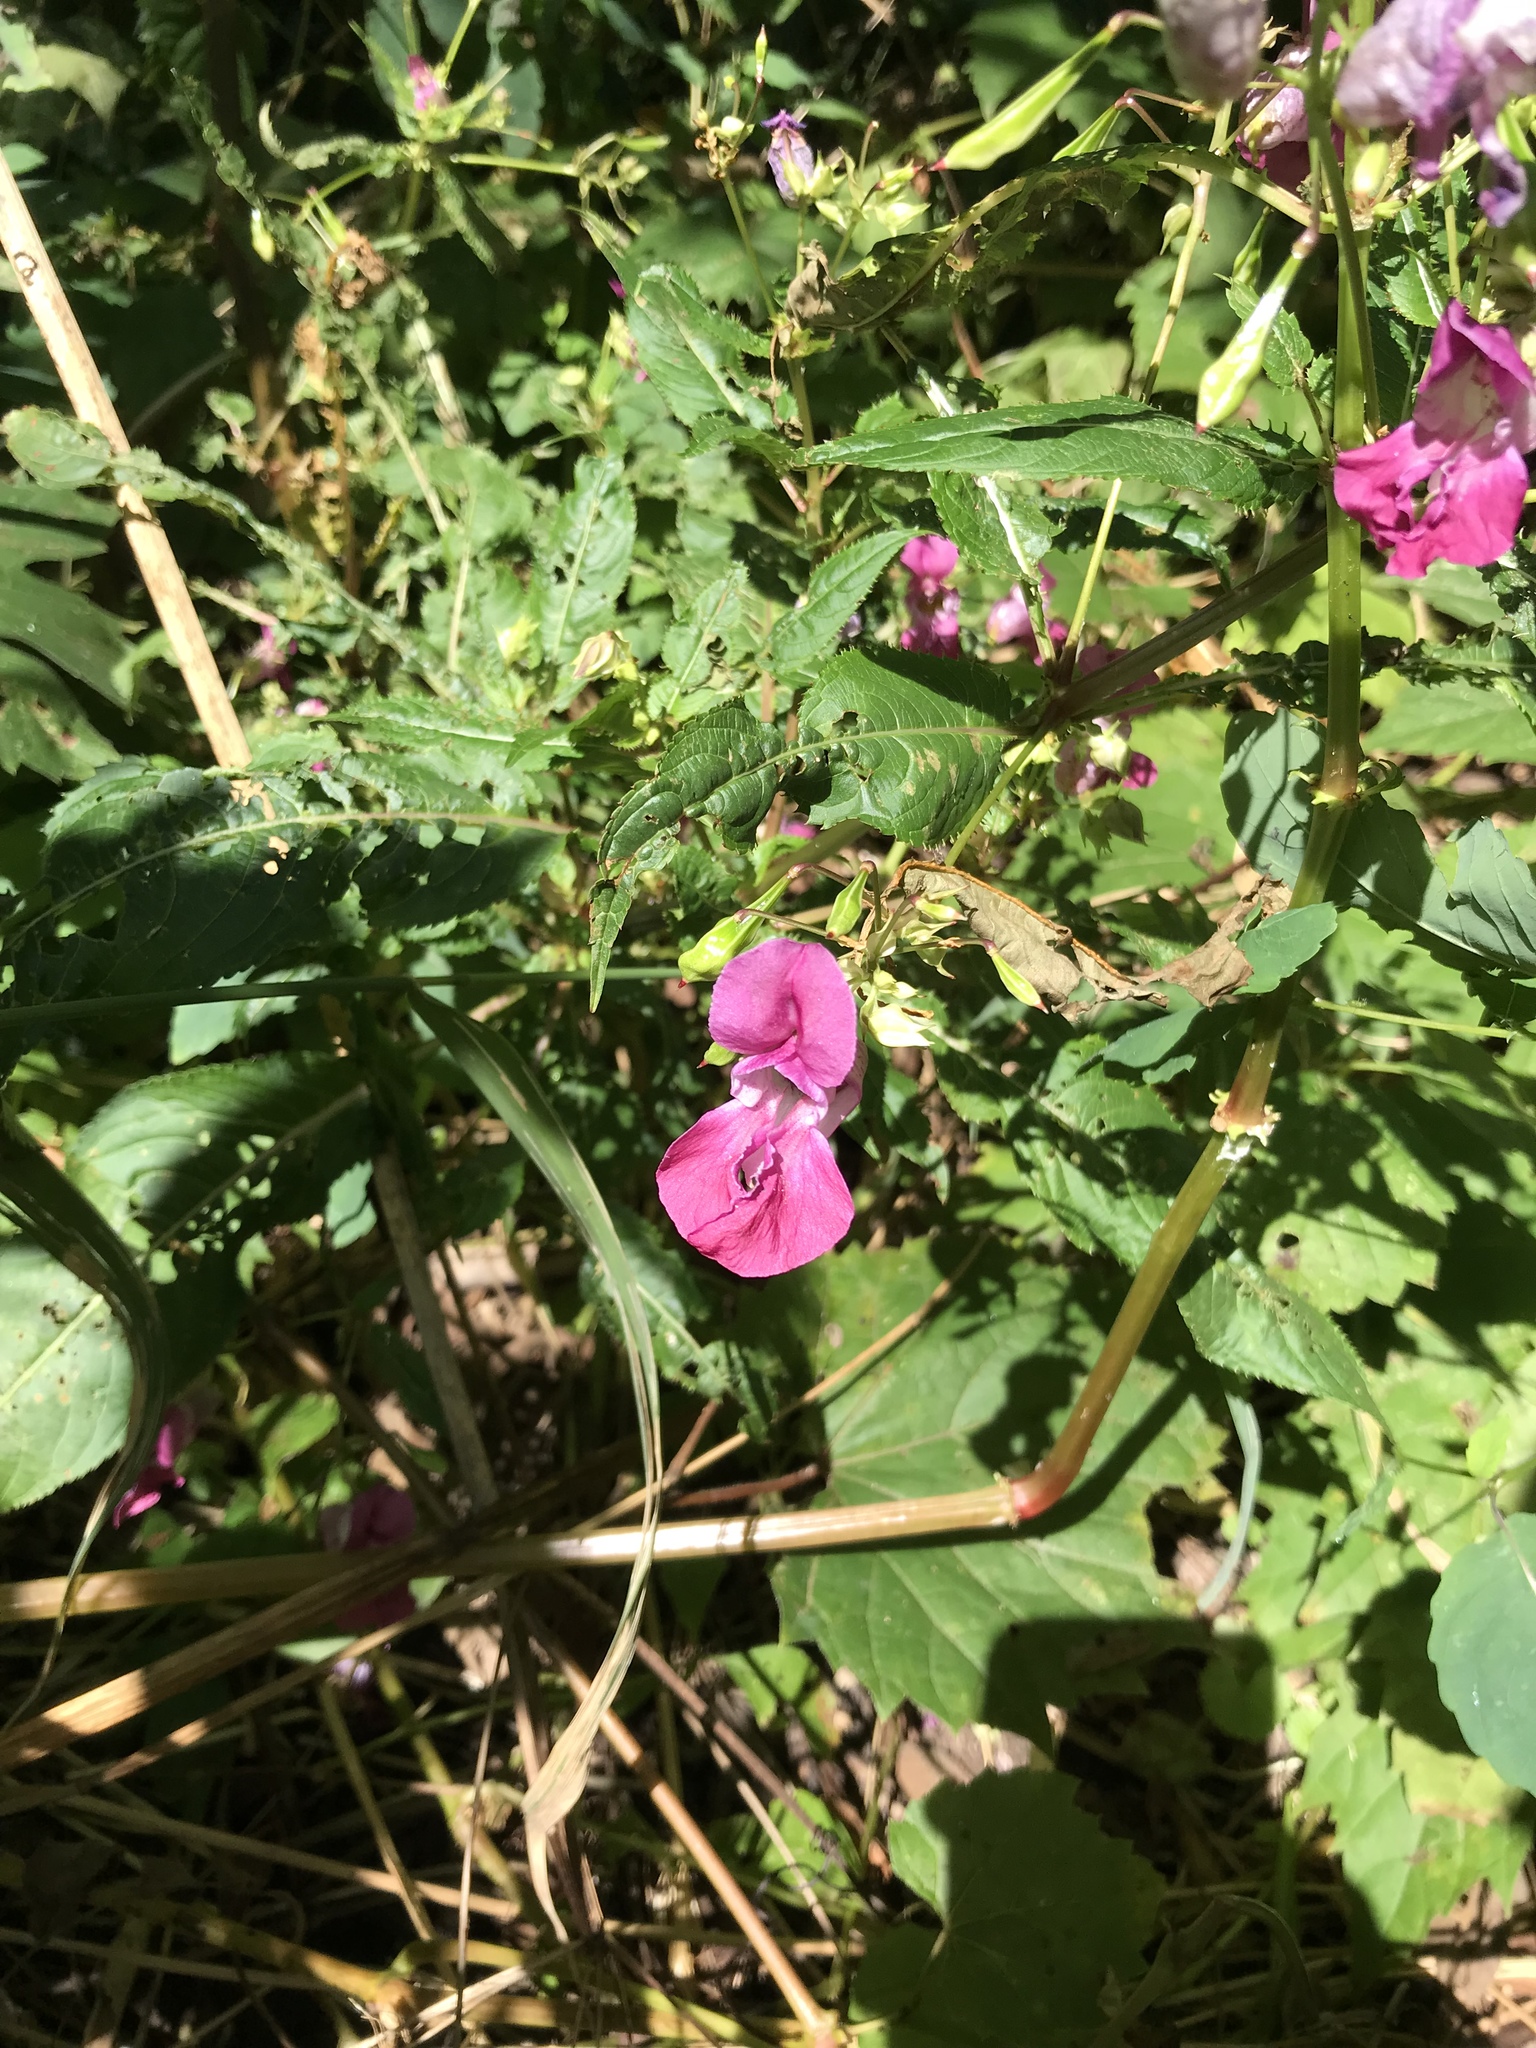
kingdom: Plantae
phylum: Tracheophyta
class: Magnoliopsida
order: Ericales
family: Balsaminaceae
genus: Impatiens
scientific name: Impatiens glandulifera
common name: Himalayan balsam
